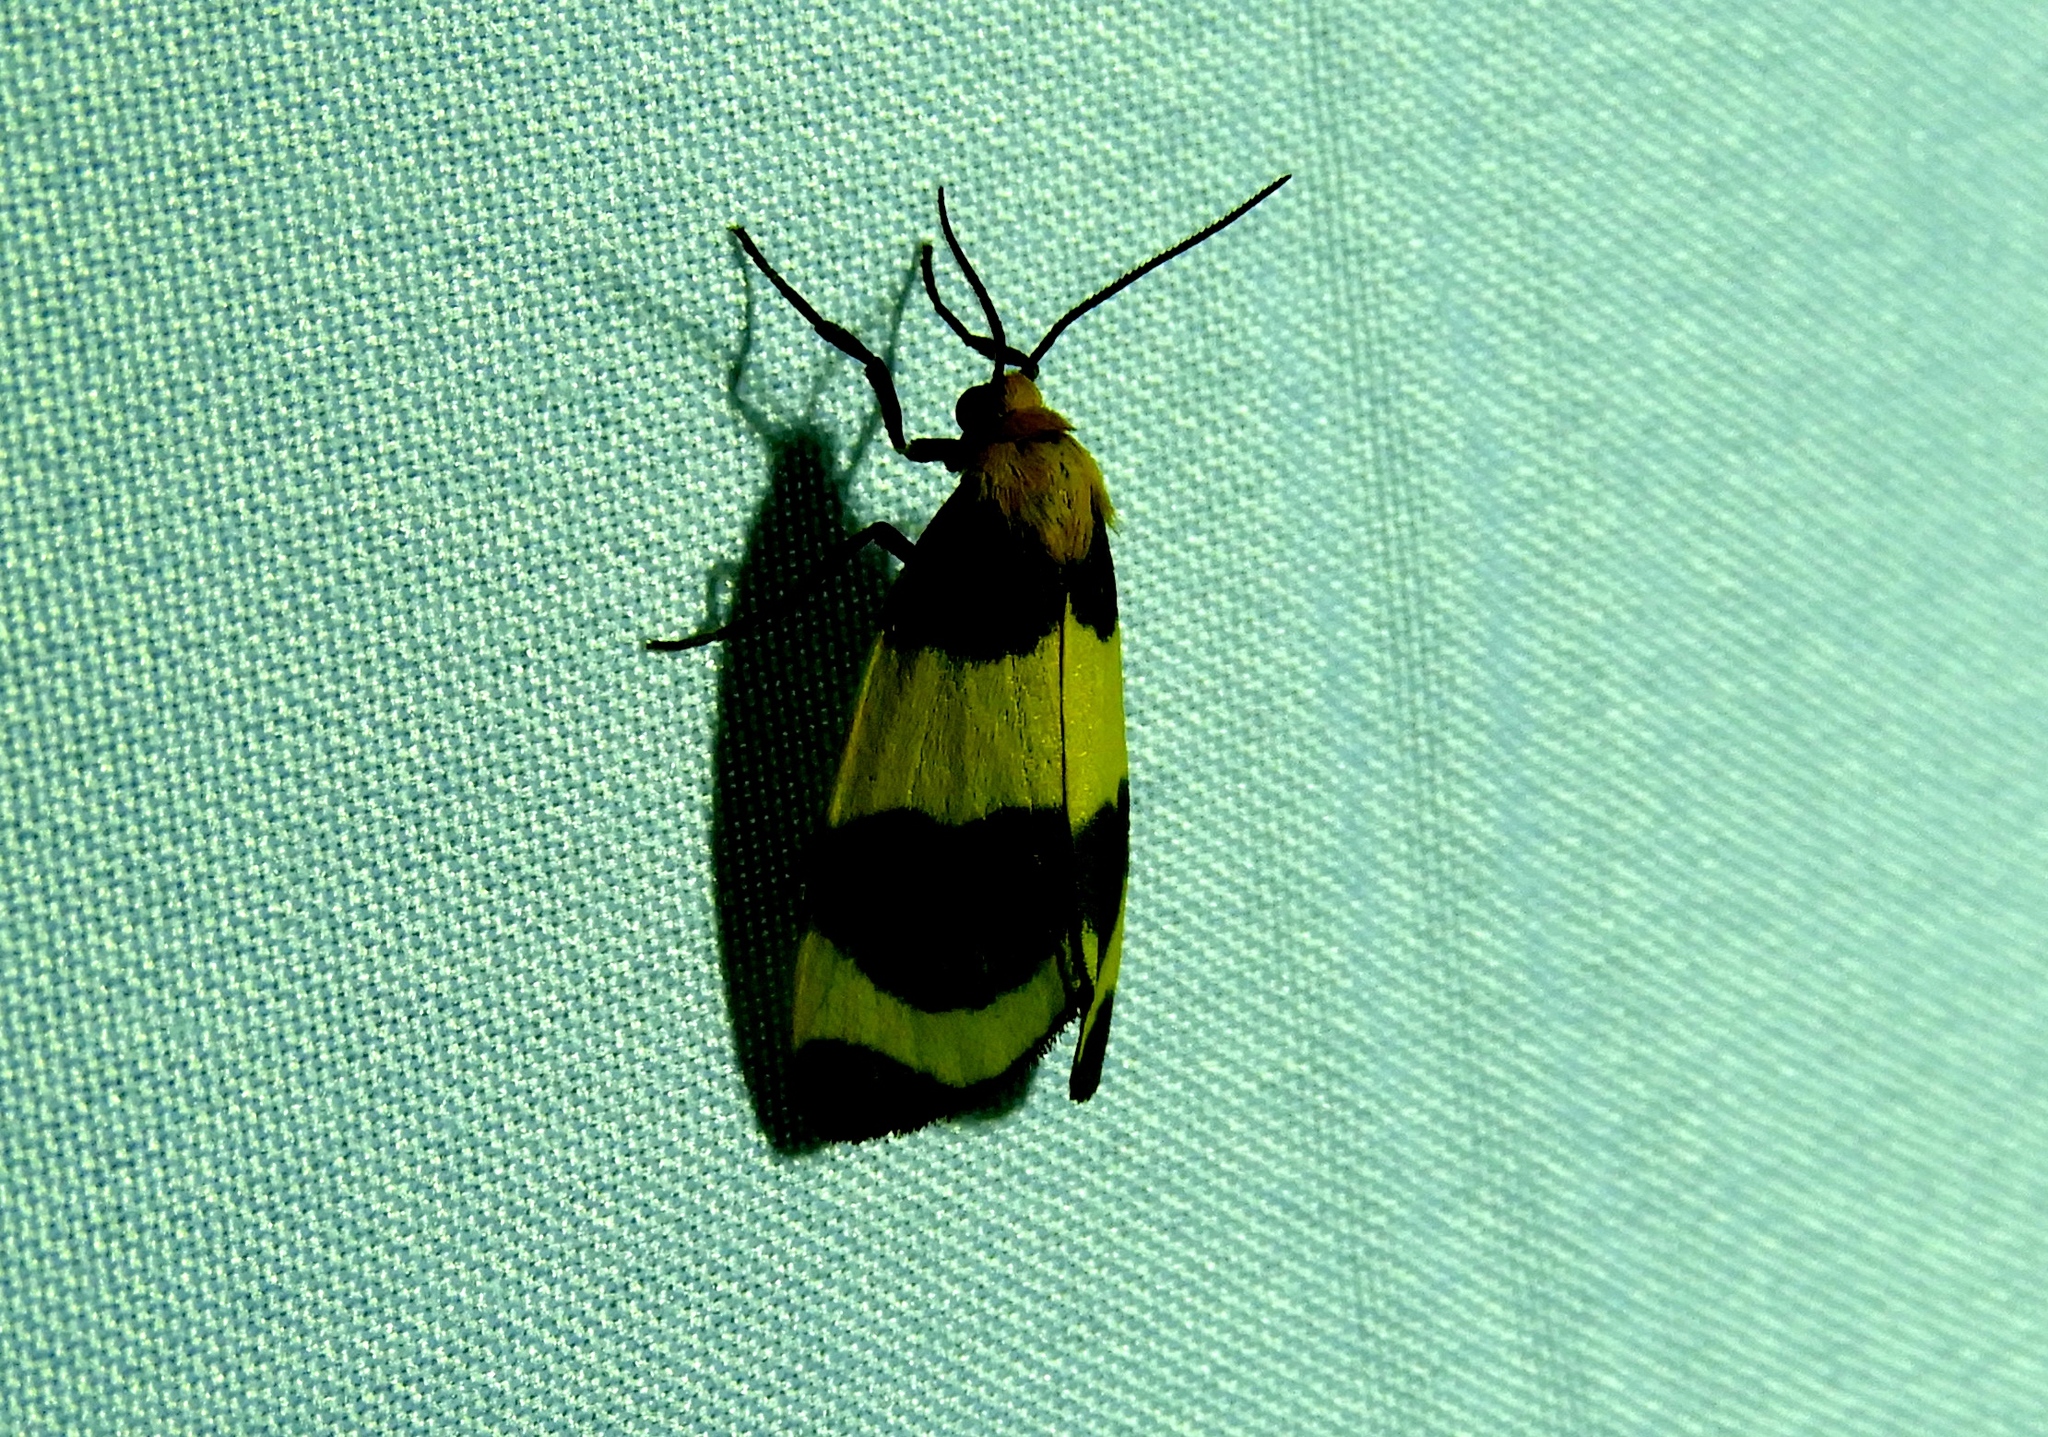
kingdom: Animalia
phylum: Arthropoda
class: Insecta
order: Lepidoptera
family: Erebidae
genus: Eudesmia
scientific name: Eudesmia
